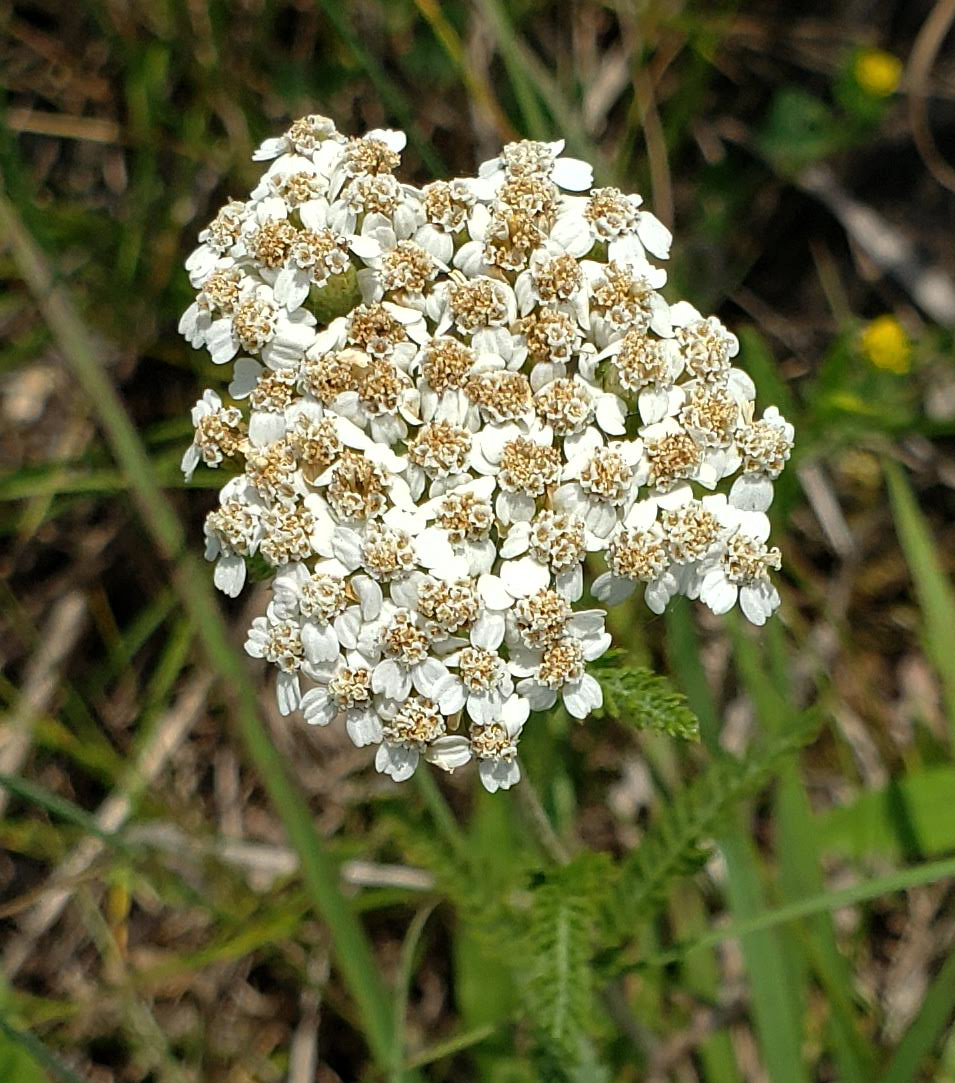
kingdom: Plantae
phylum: Tracheophyta
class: Magnoliopsida
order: Asterales
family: Asteraceae
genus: Achillea
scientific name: Achillea millefolium
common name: Yarrow
